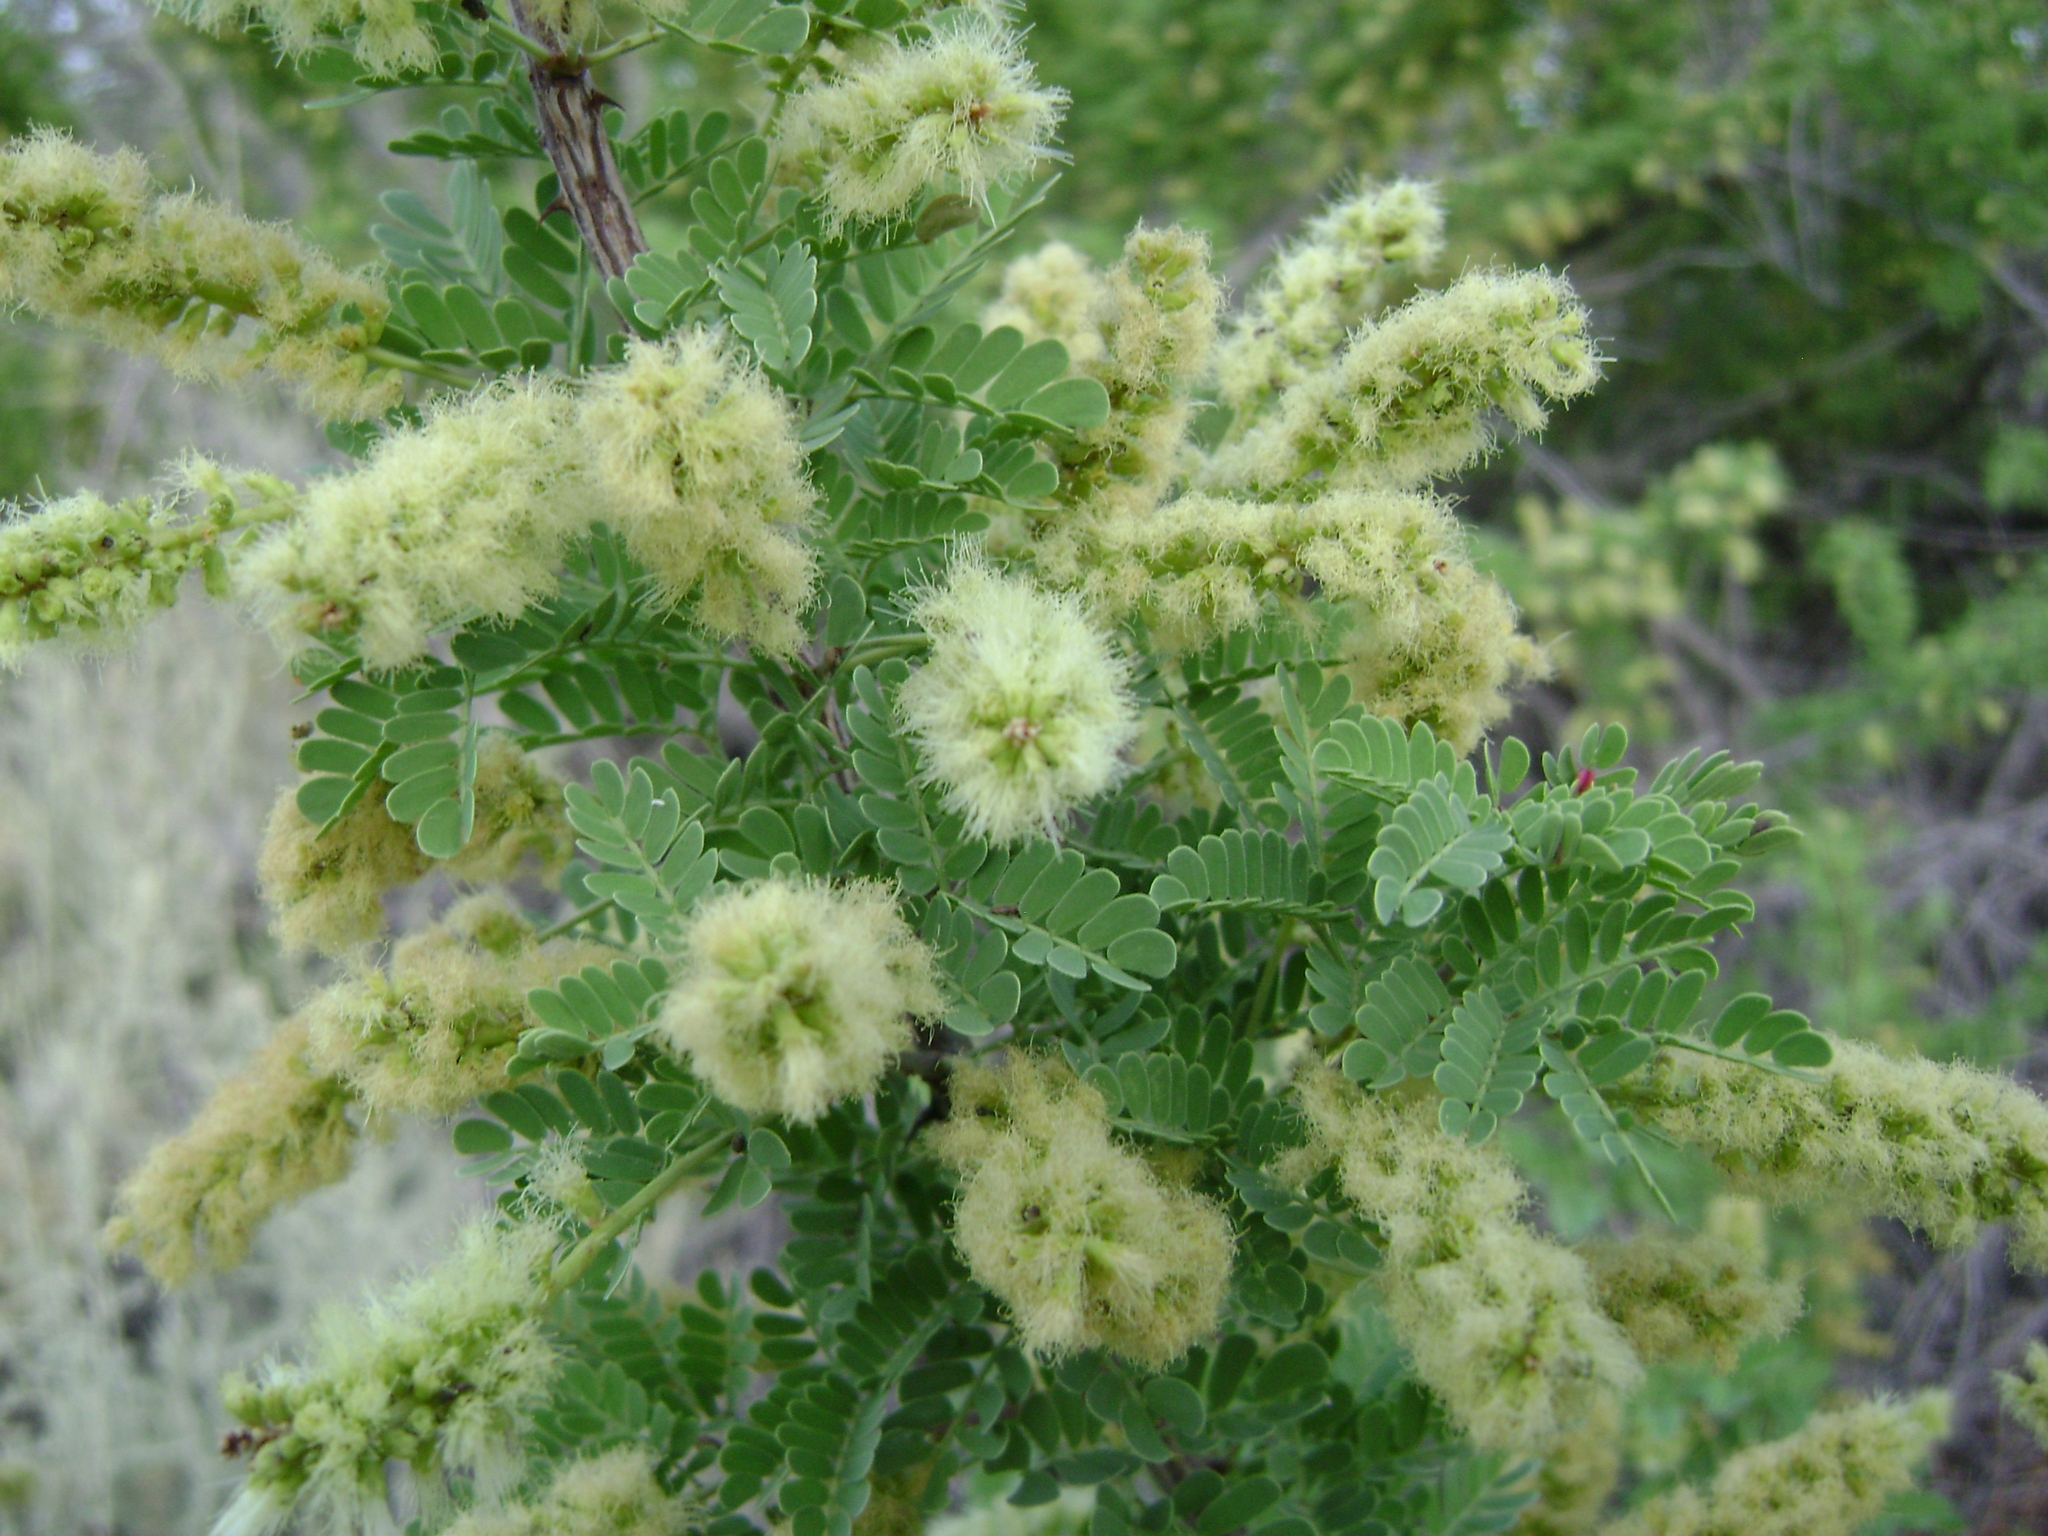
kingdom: Plantae
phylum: Tracheophyta
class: Magnoliopsida
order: Fabales
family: Fabaceae
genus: Senegalia
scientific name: Senegalia greggii
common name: Texas-mimosa
